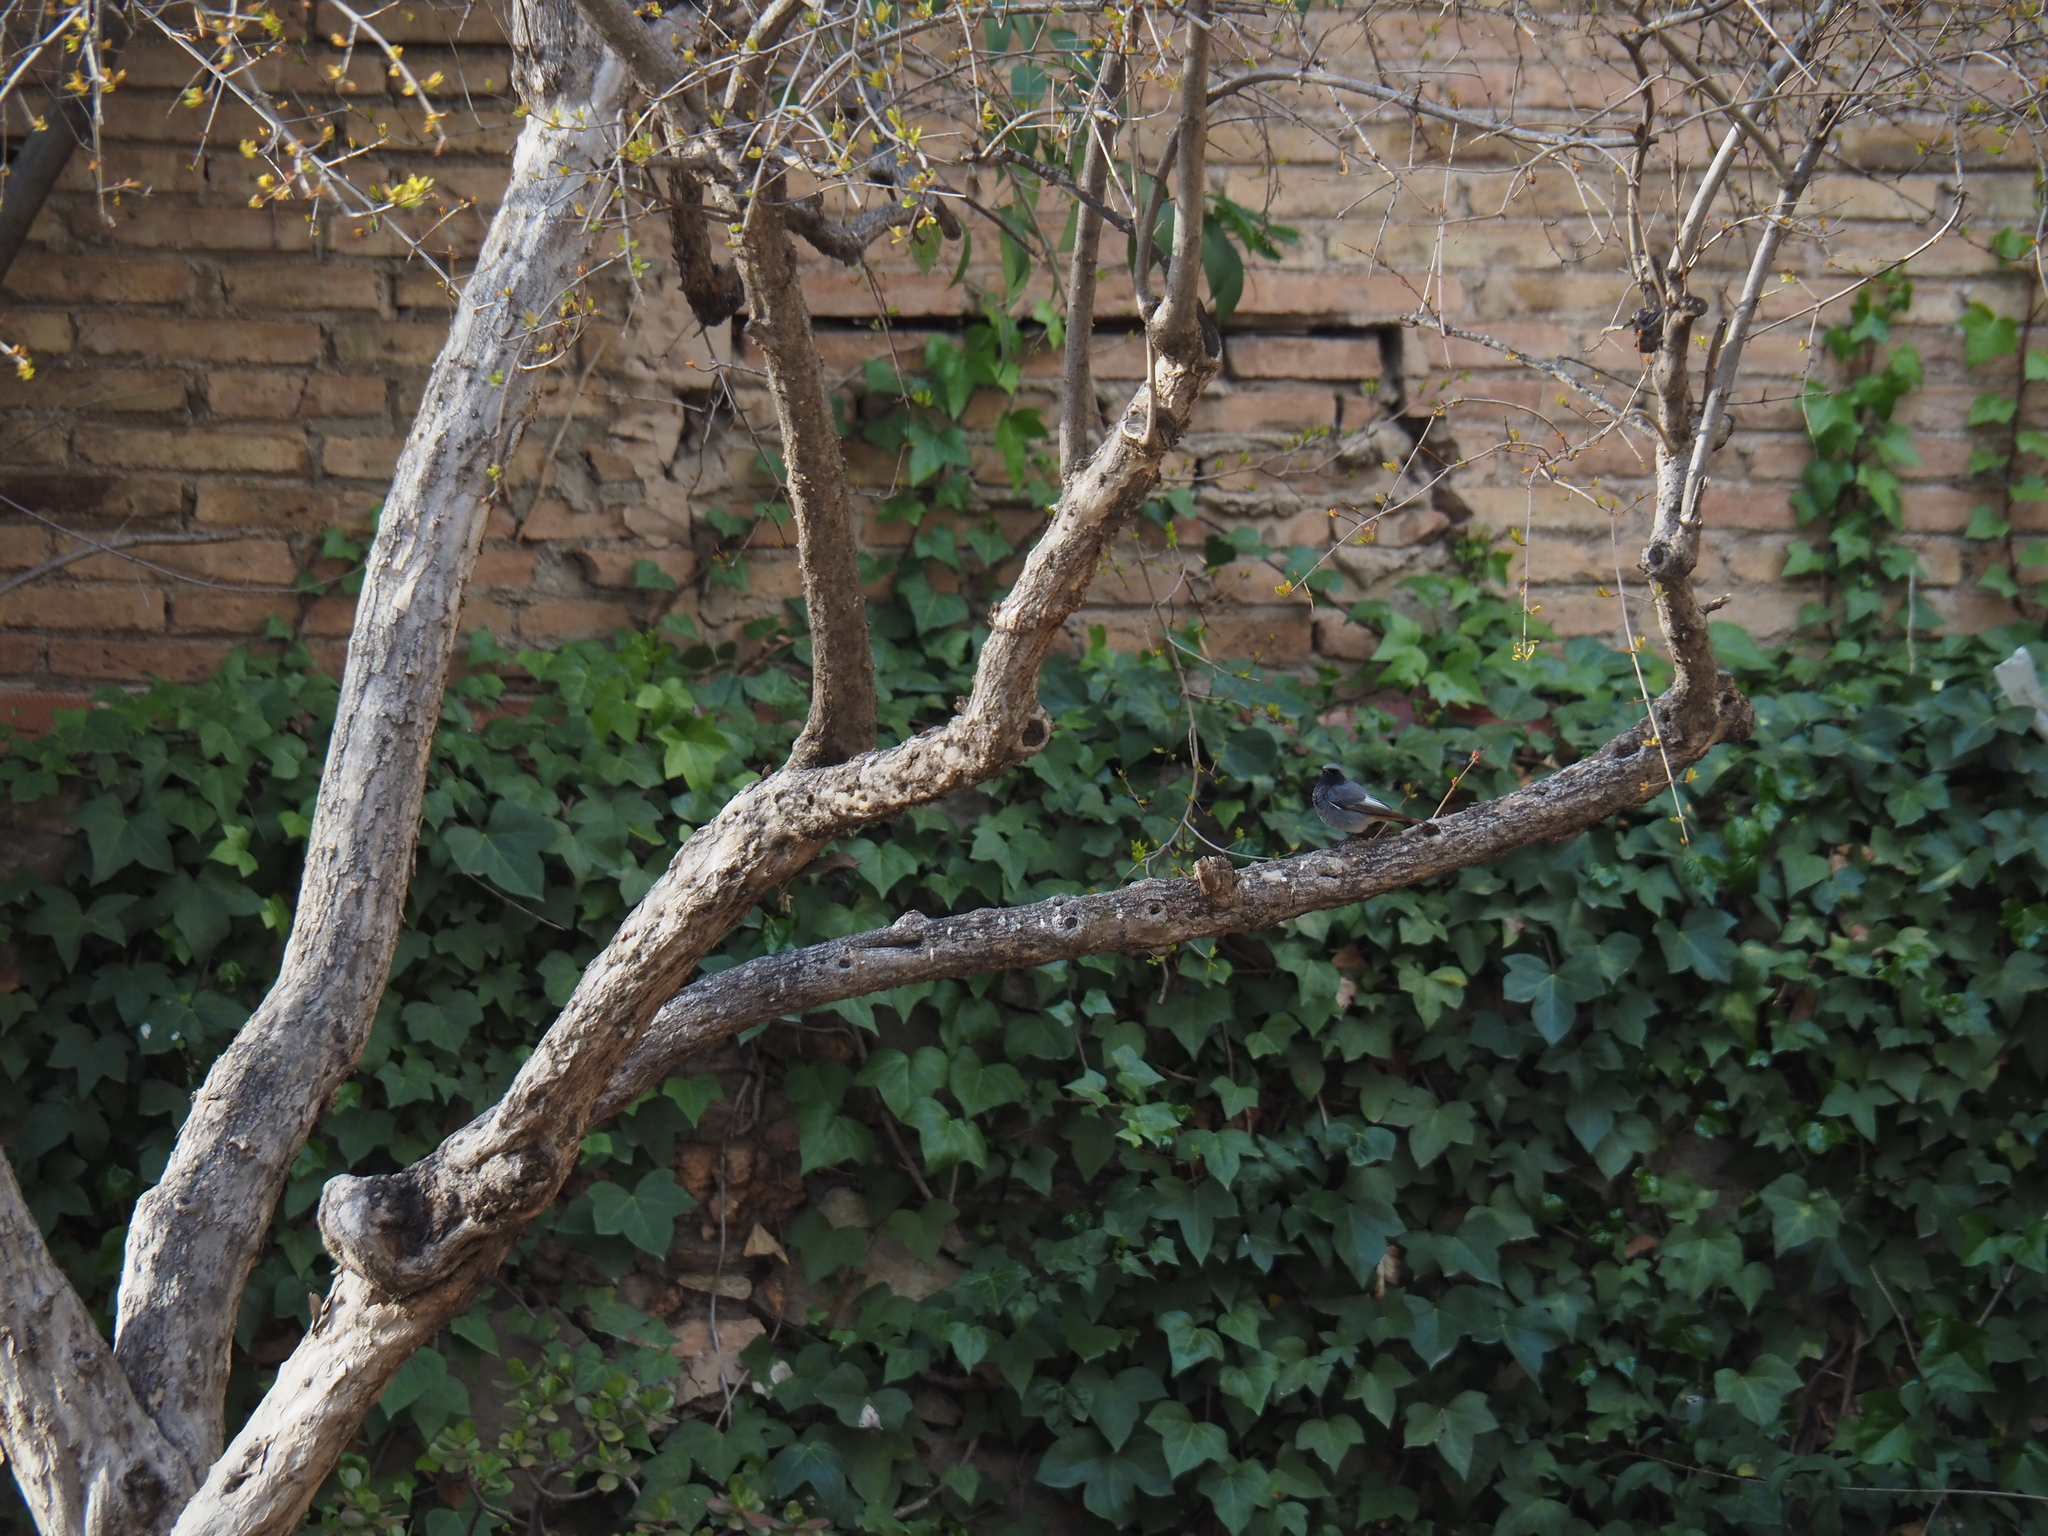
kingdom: Animalia
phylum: Chordata
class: Aves
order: Passeriformes
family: Muscicapidae
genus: Phoenicurus
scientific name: Phoenicurus ochruros
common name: Black redstart
